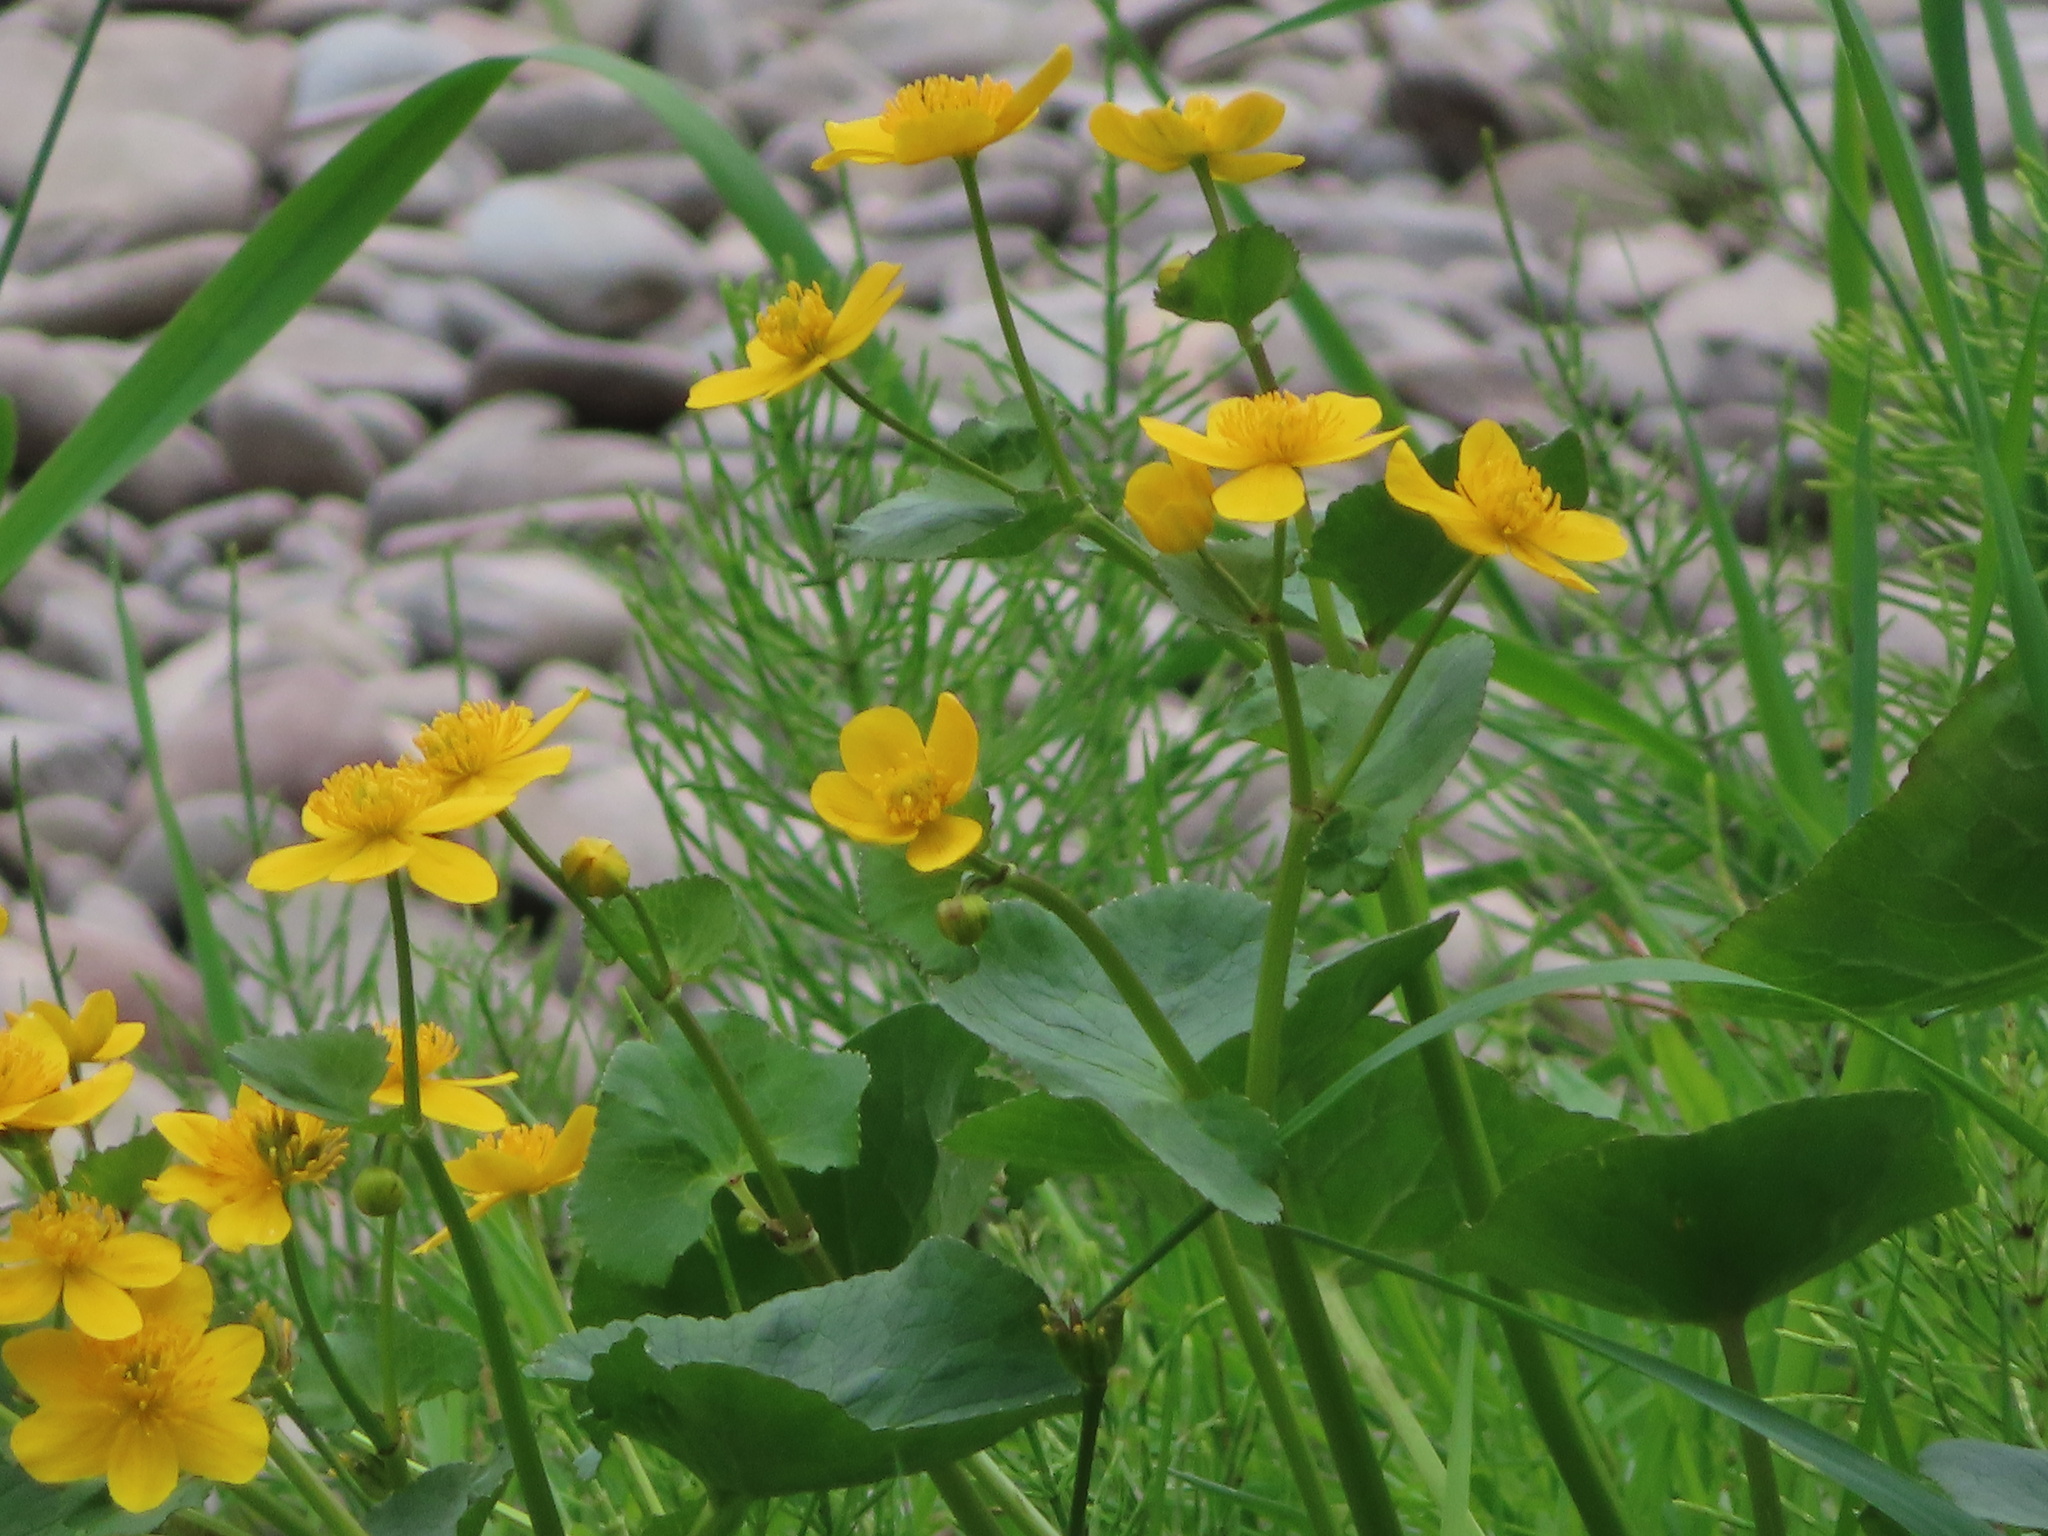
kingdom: Plantae
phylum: Tracheophyta
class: Magnoliopsida
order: Ranunculales
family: Ranunculaceae
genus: Caltha
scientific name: Caltha palustris
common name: Marsh marigold
